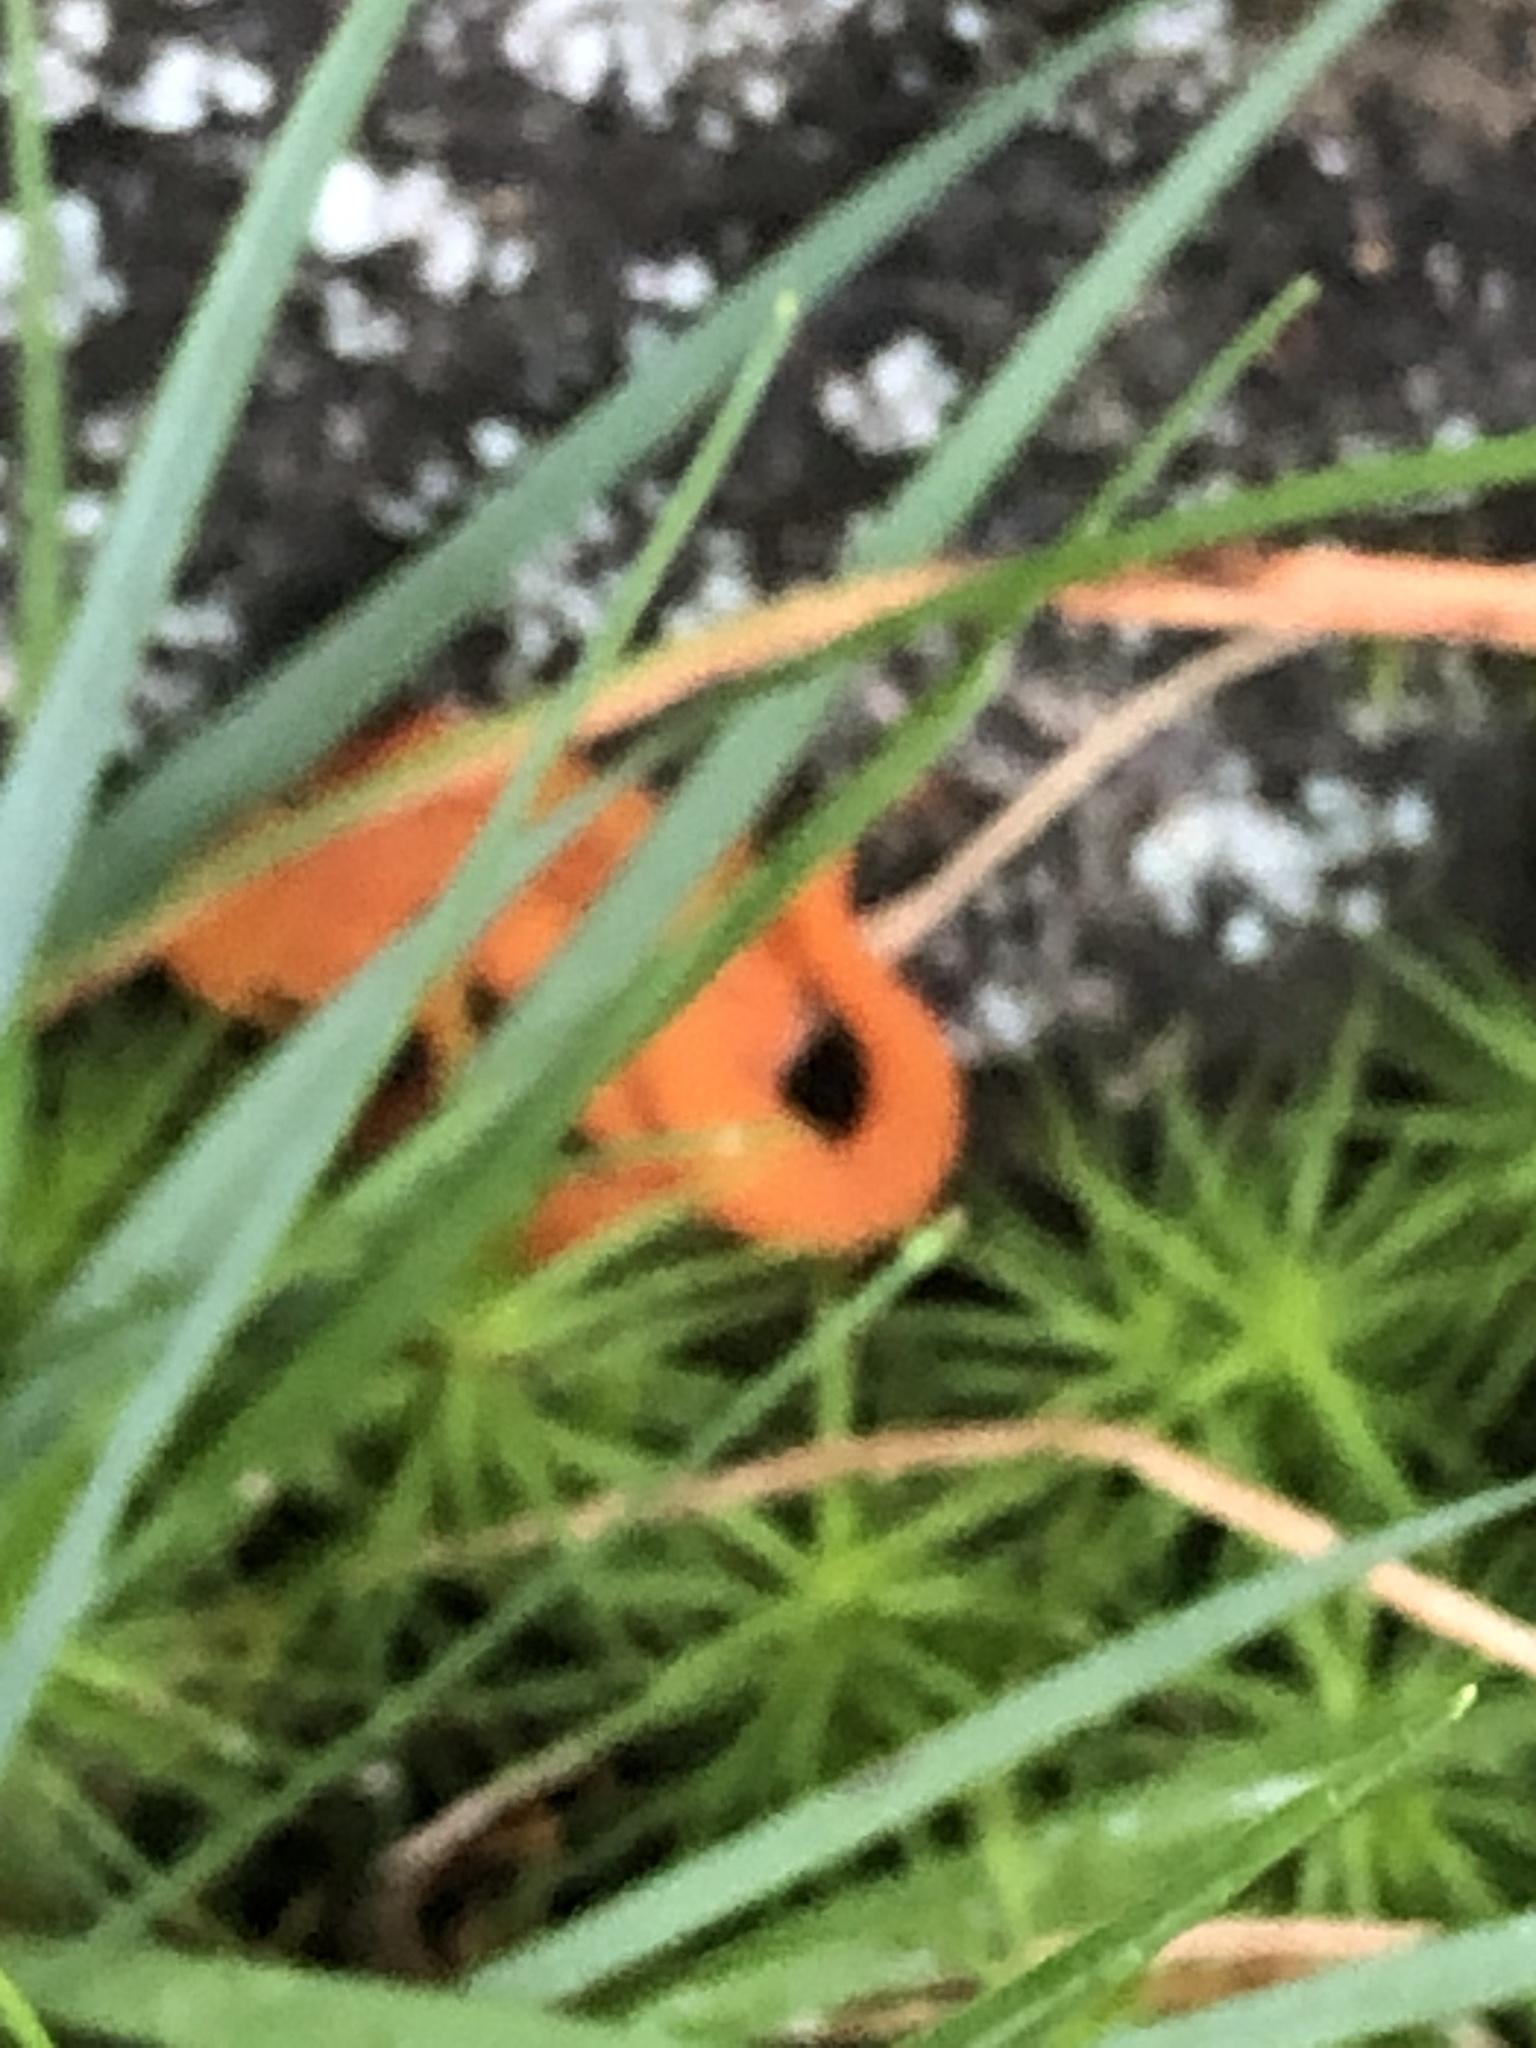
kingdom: Animalia
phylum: Chordata
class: Amphibia
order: Caudata
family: Salamandridae
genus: Notophthalmus
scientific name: Notophthalmus viridescens
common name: Eastern newt
